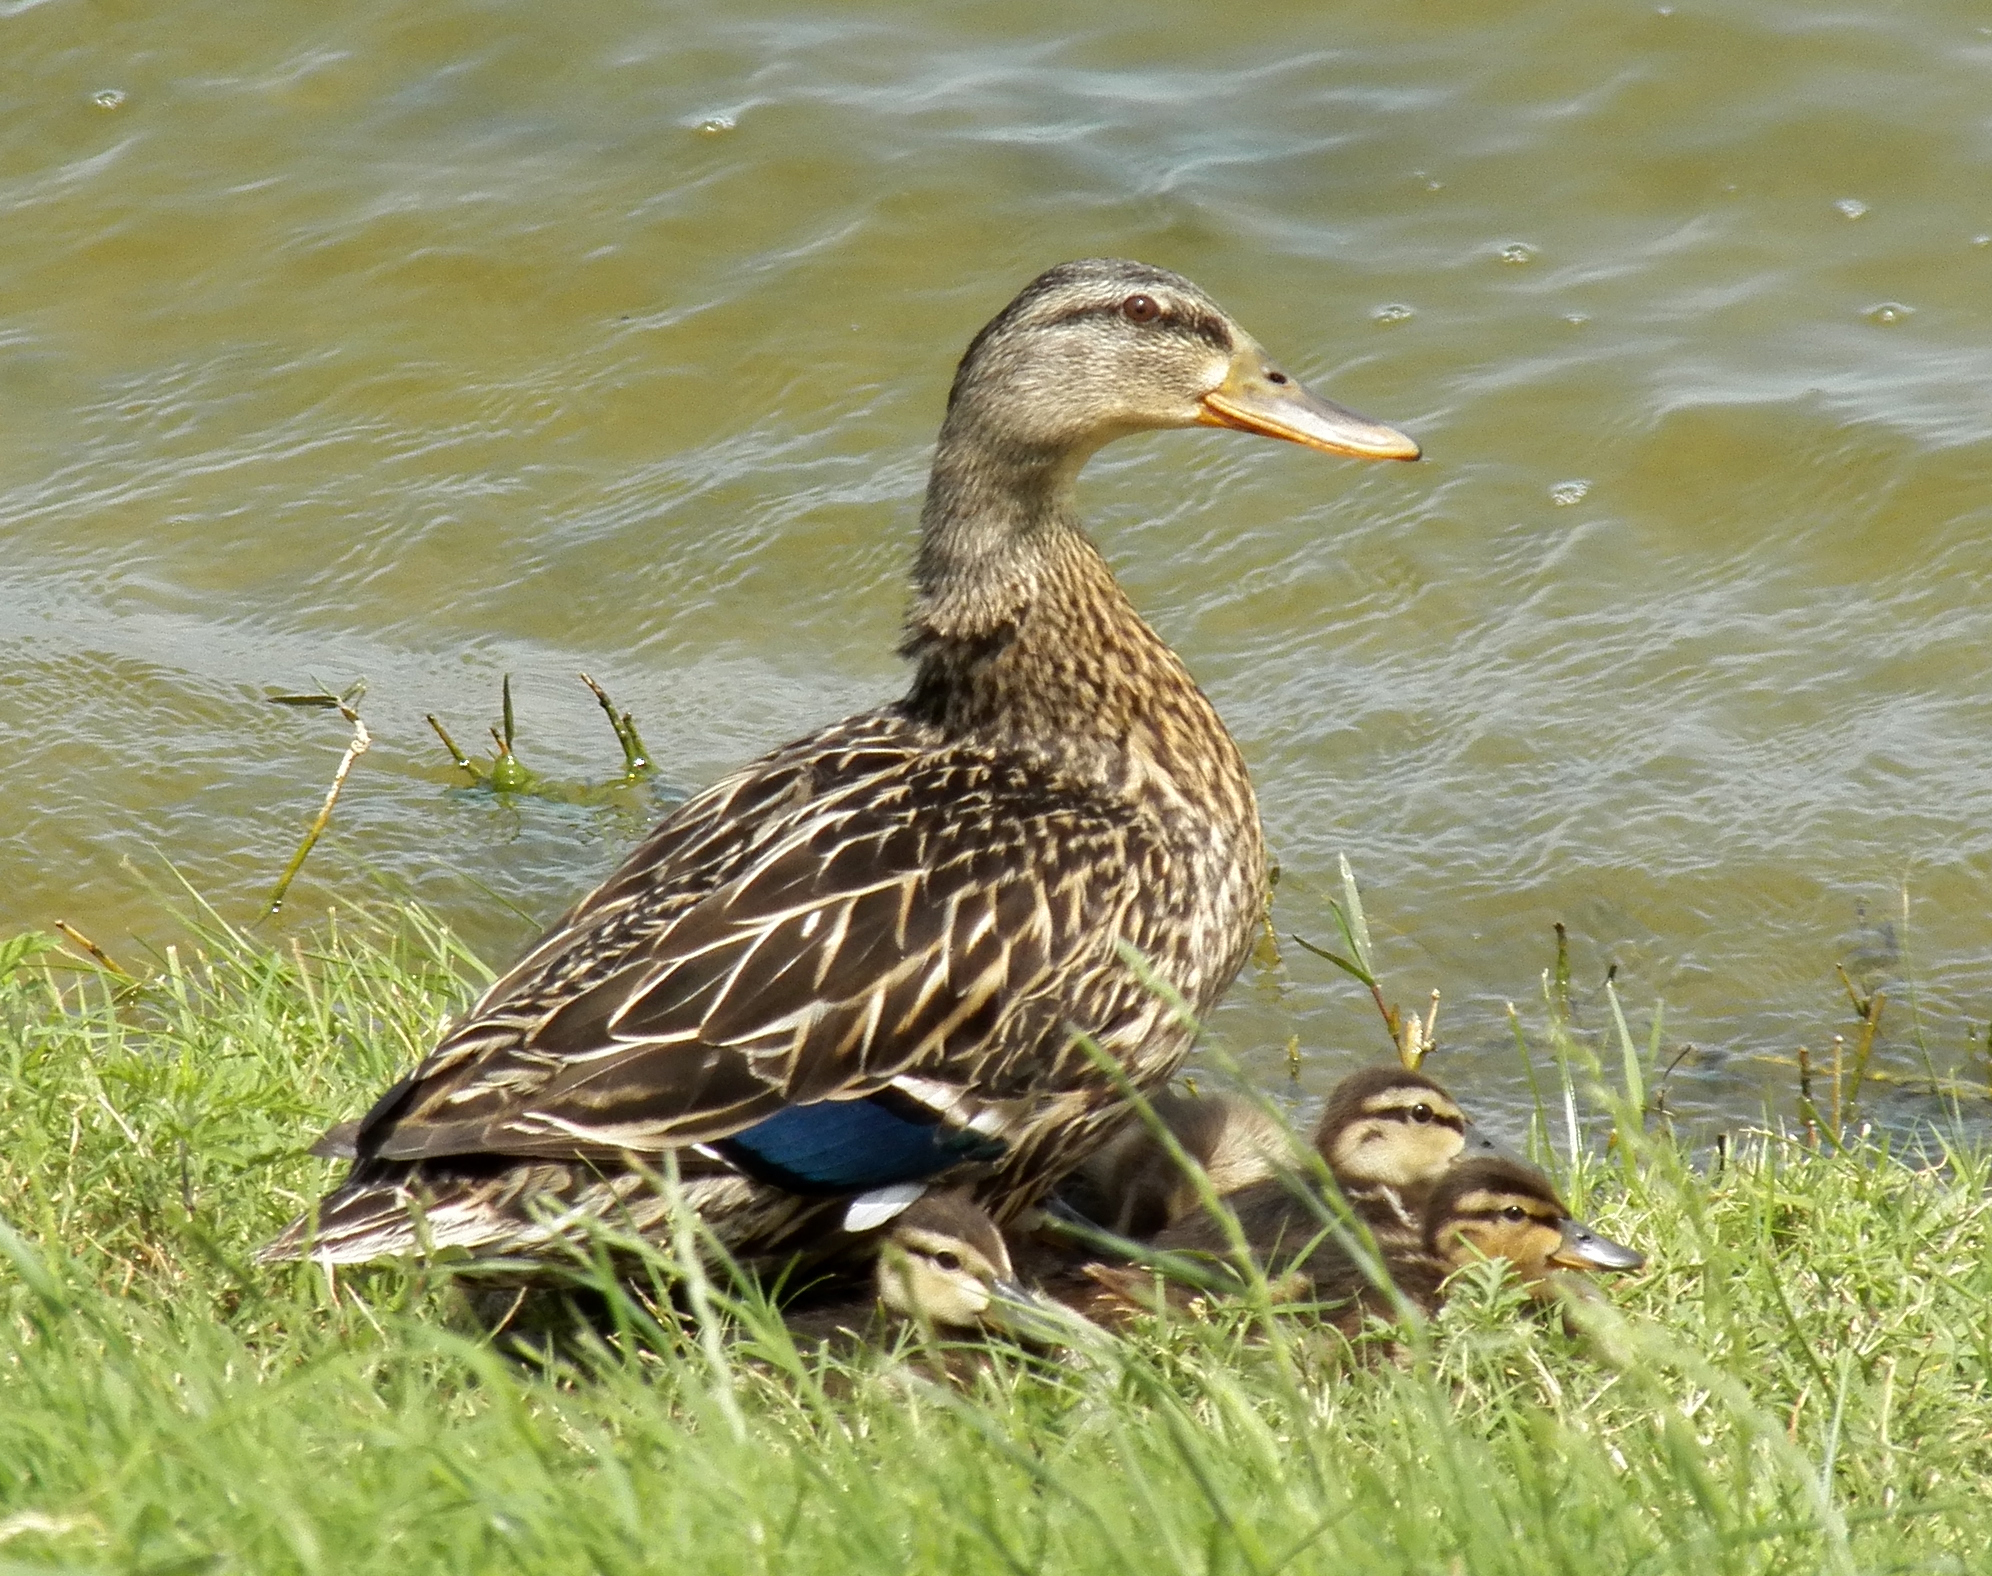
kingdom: Animalia
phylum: Chordata
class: Aves
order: Anseriformes
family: Anatidae
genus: Anas
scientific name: Anas platyrhynchos
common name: Mallard
